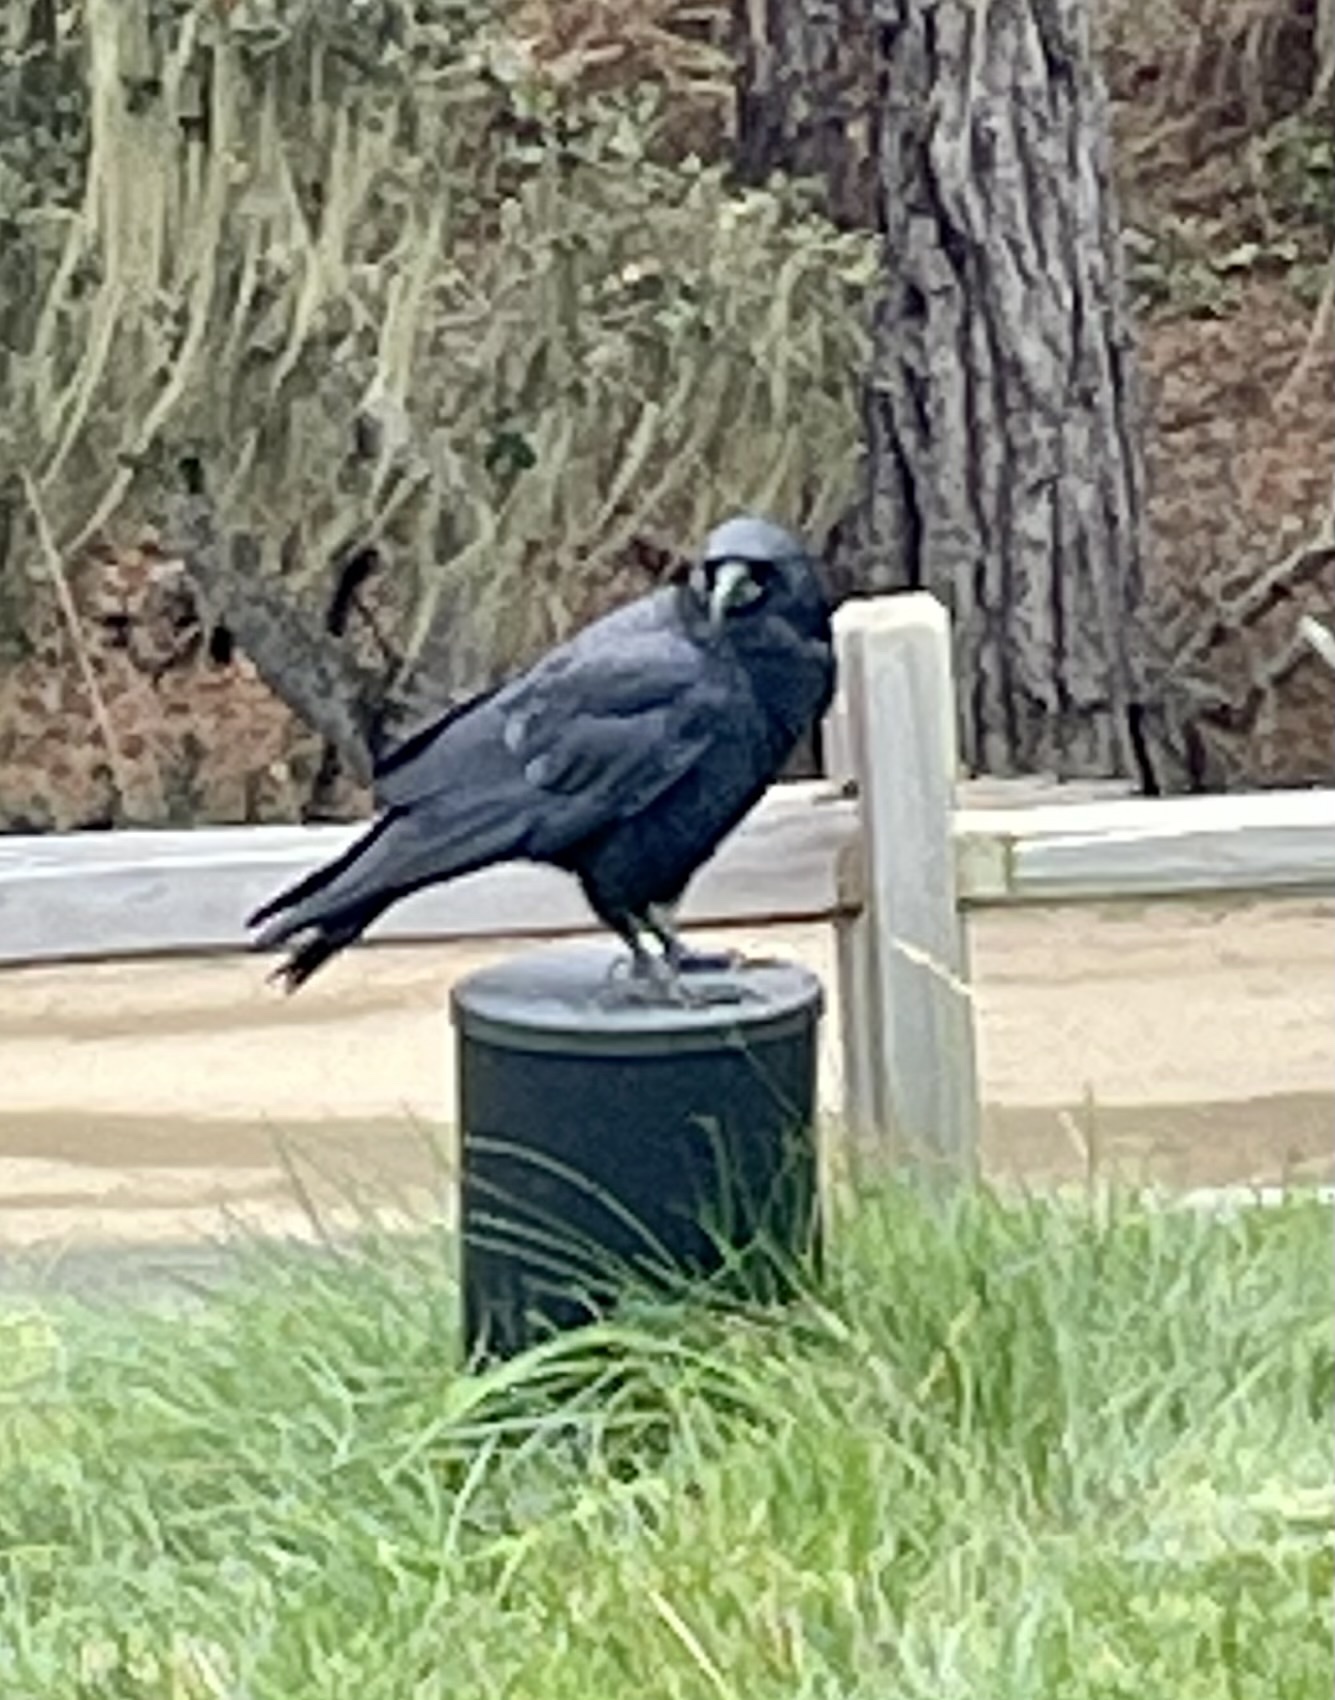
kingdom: Animalia
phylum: Chordata
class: Aves
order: Passeriformes
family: Corvidae
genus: Corvus
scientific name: Corvus brachyrhynchos
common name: American crow
